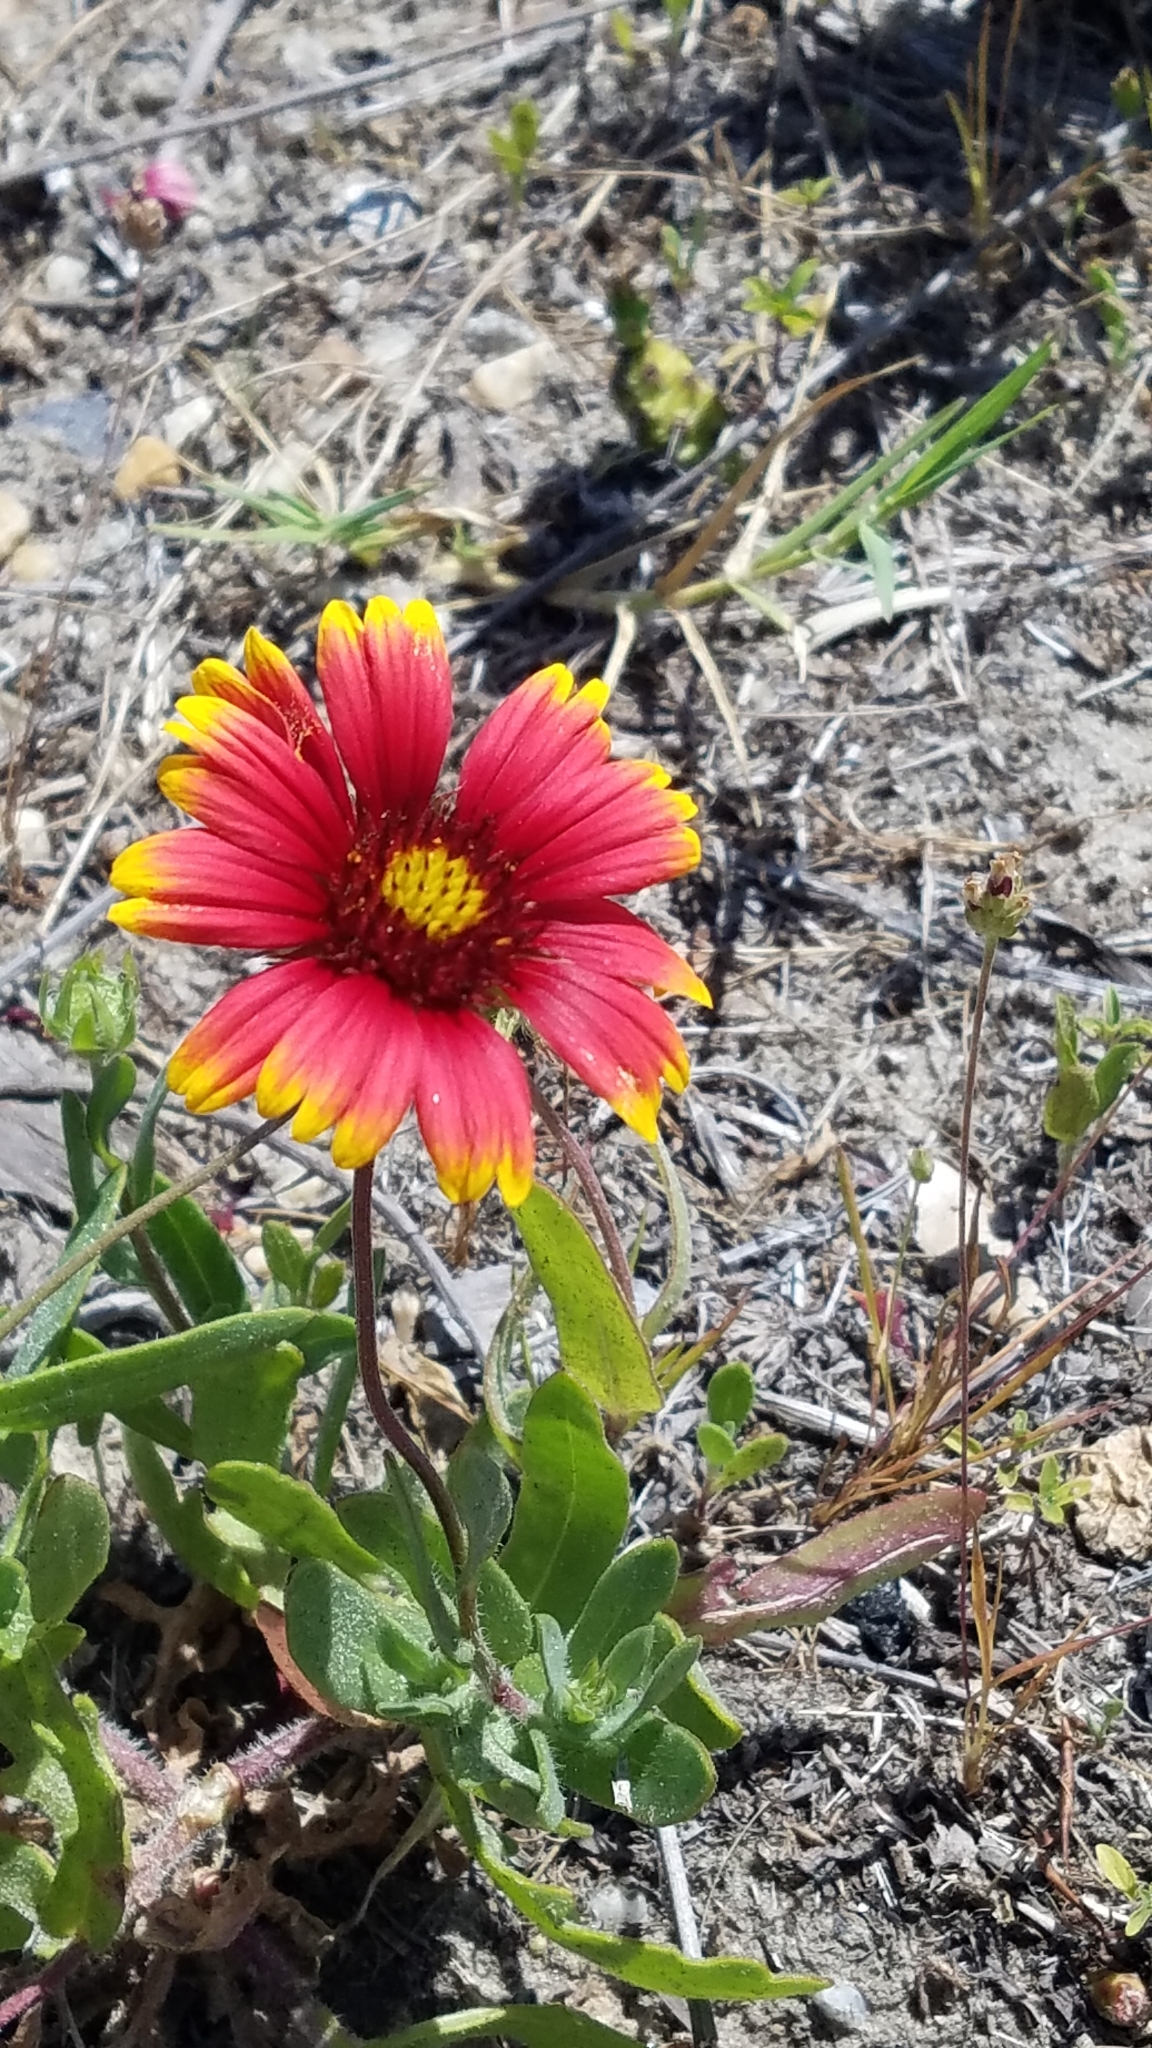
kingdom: Plantae
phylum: Tracheophyta
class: Magnoliopsida
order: Asterales
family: Asteraceae
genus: Gaillardia
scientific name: Gaillardia pulchella
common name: Firewheel
